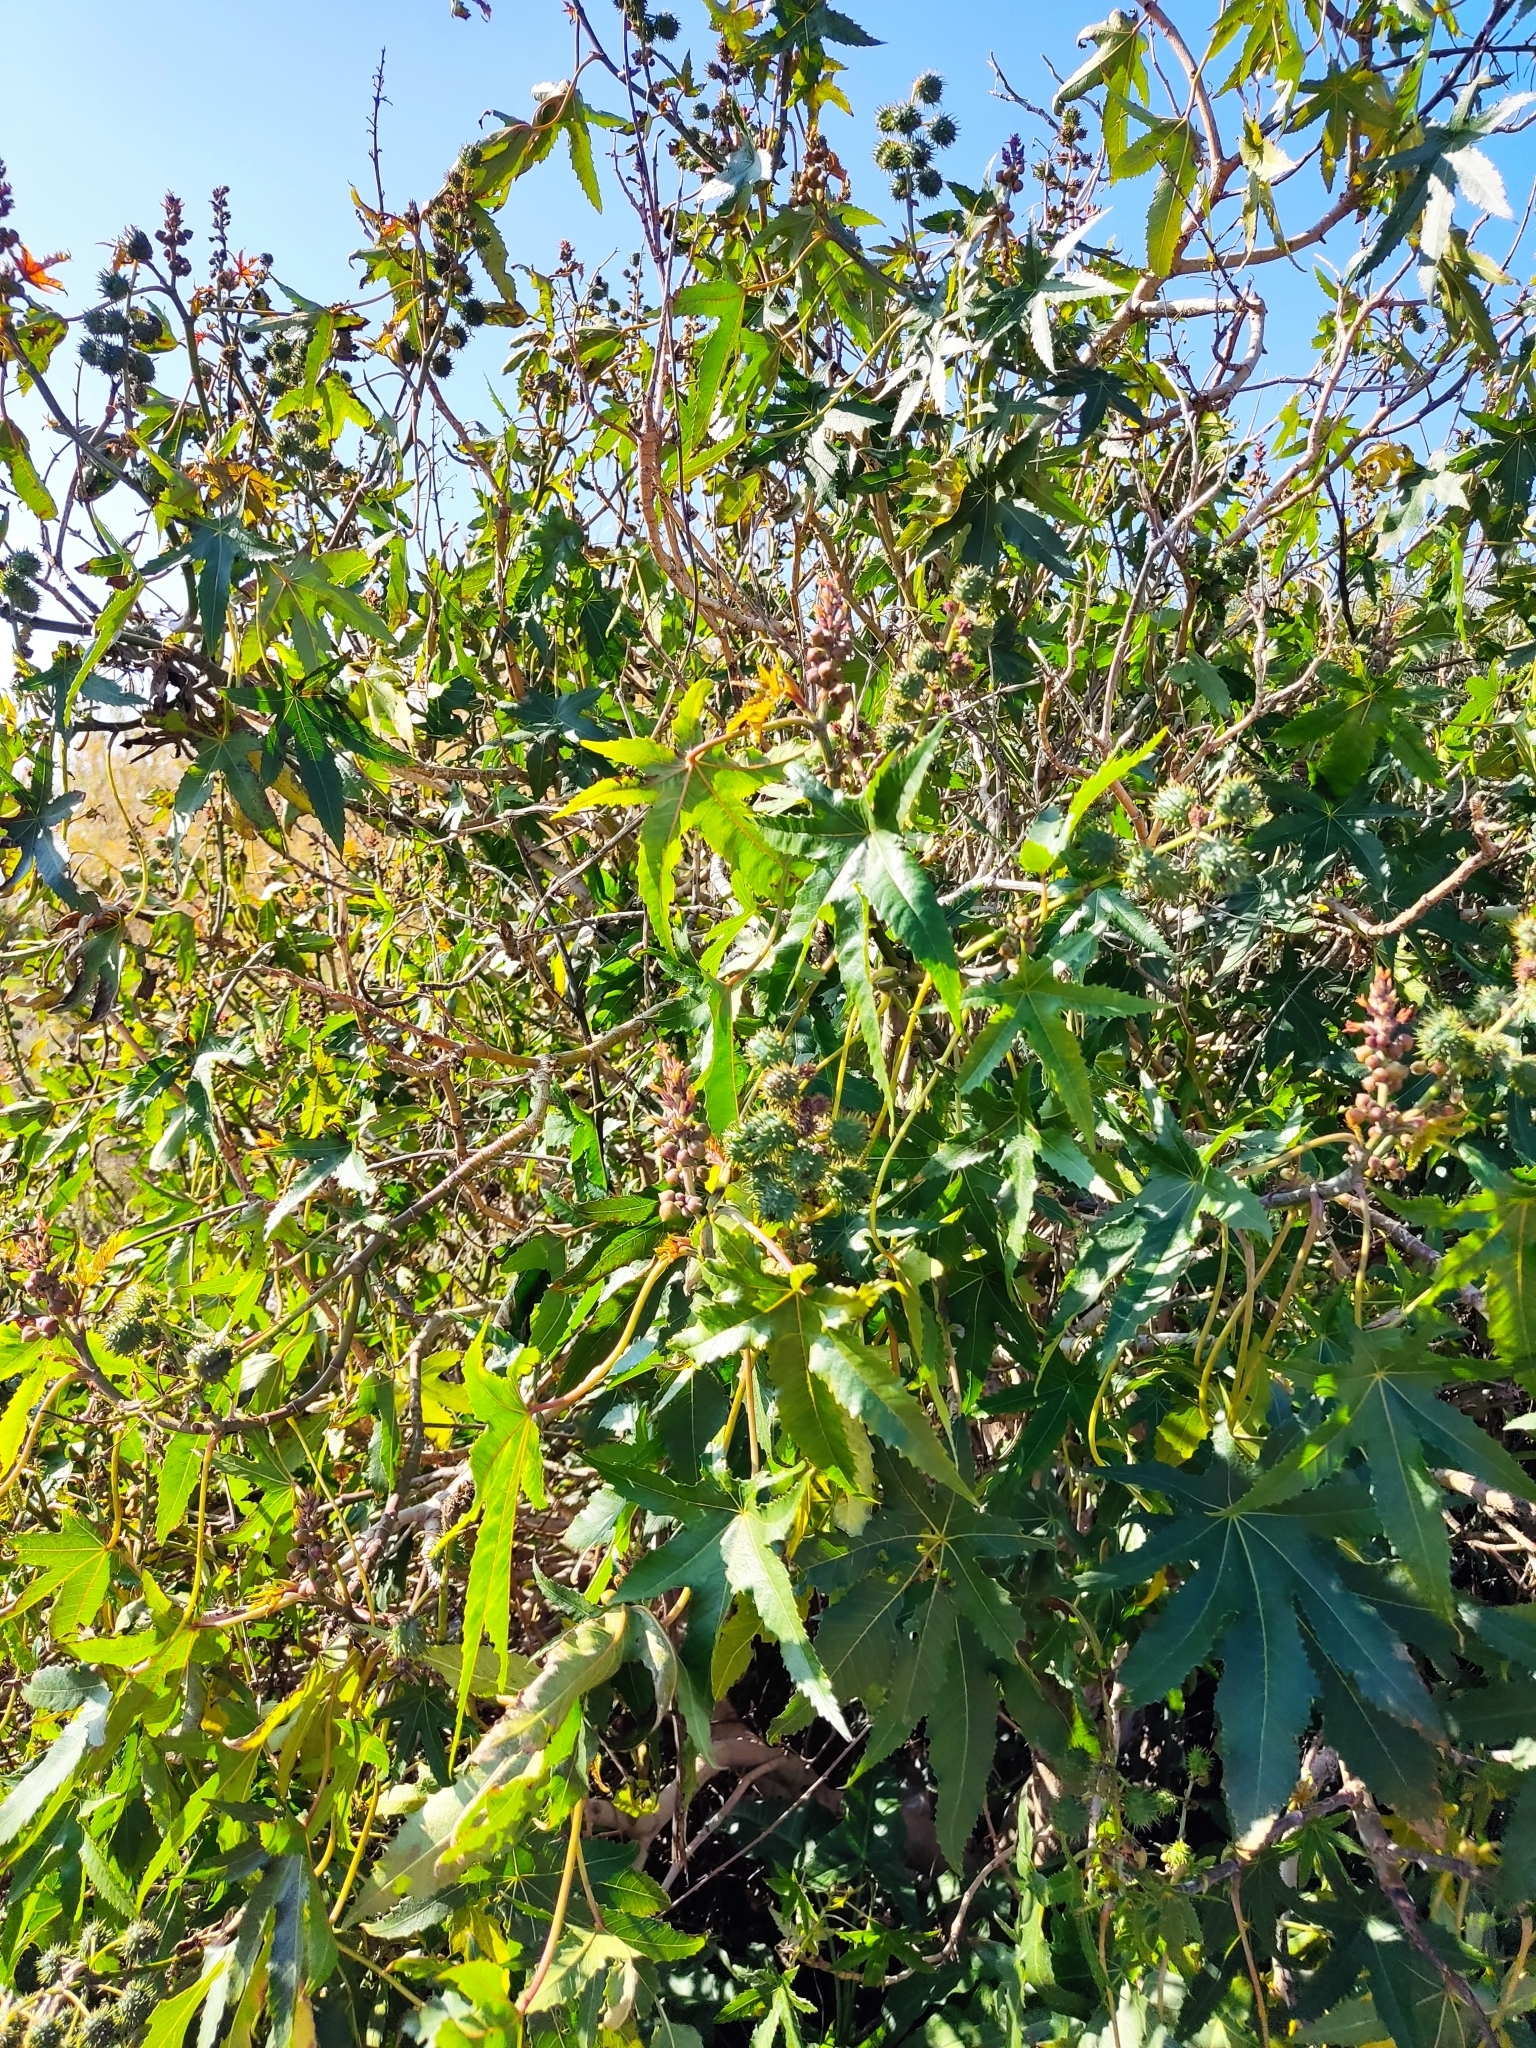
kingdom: Plantae
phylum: Tracheophyta
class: Magnoliopsida
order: Malpighiales
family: Euphorbiaceae
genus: Ricinus
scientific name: Ricinus communis
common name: Castor-oil-plant
